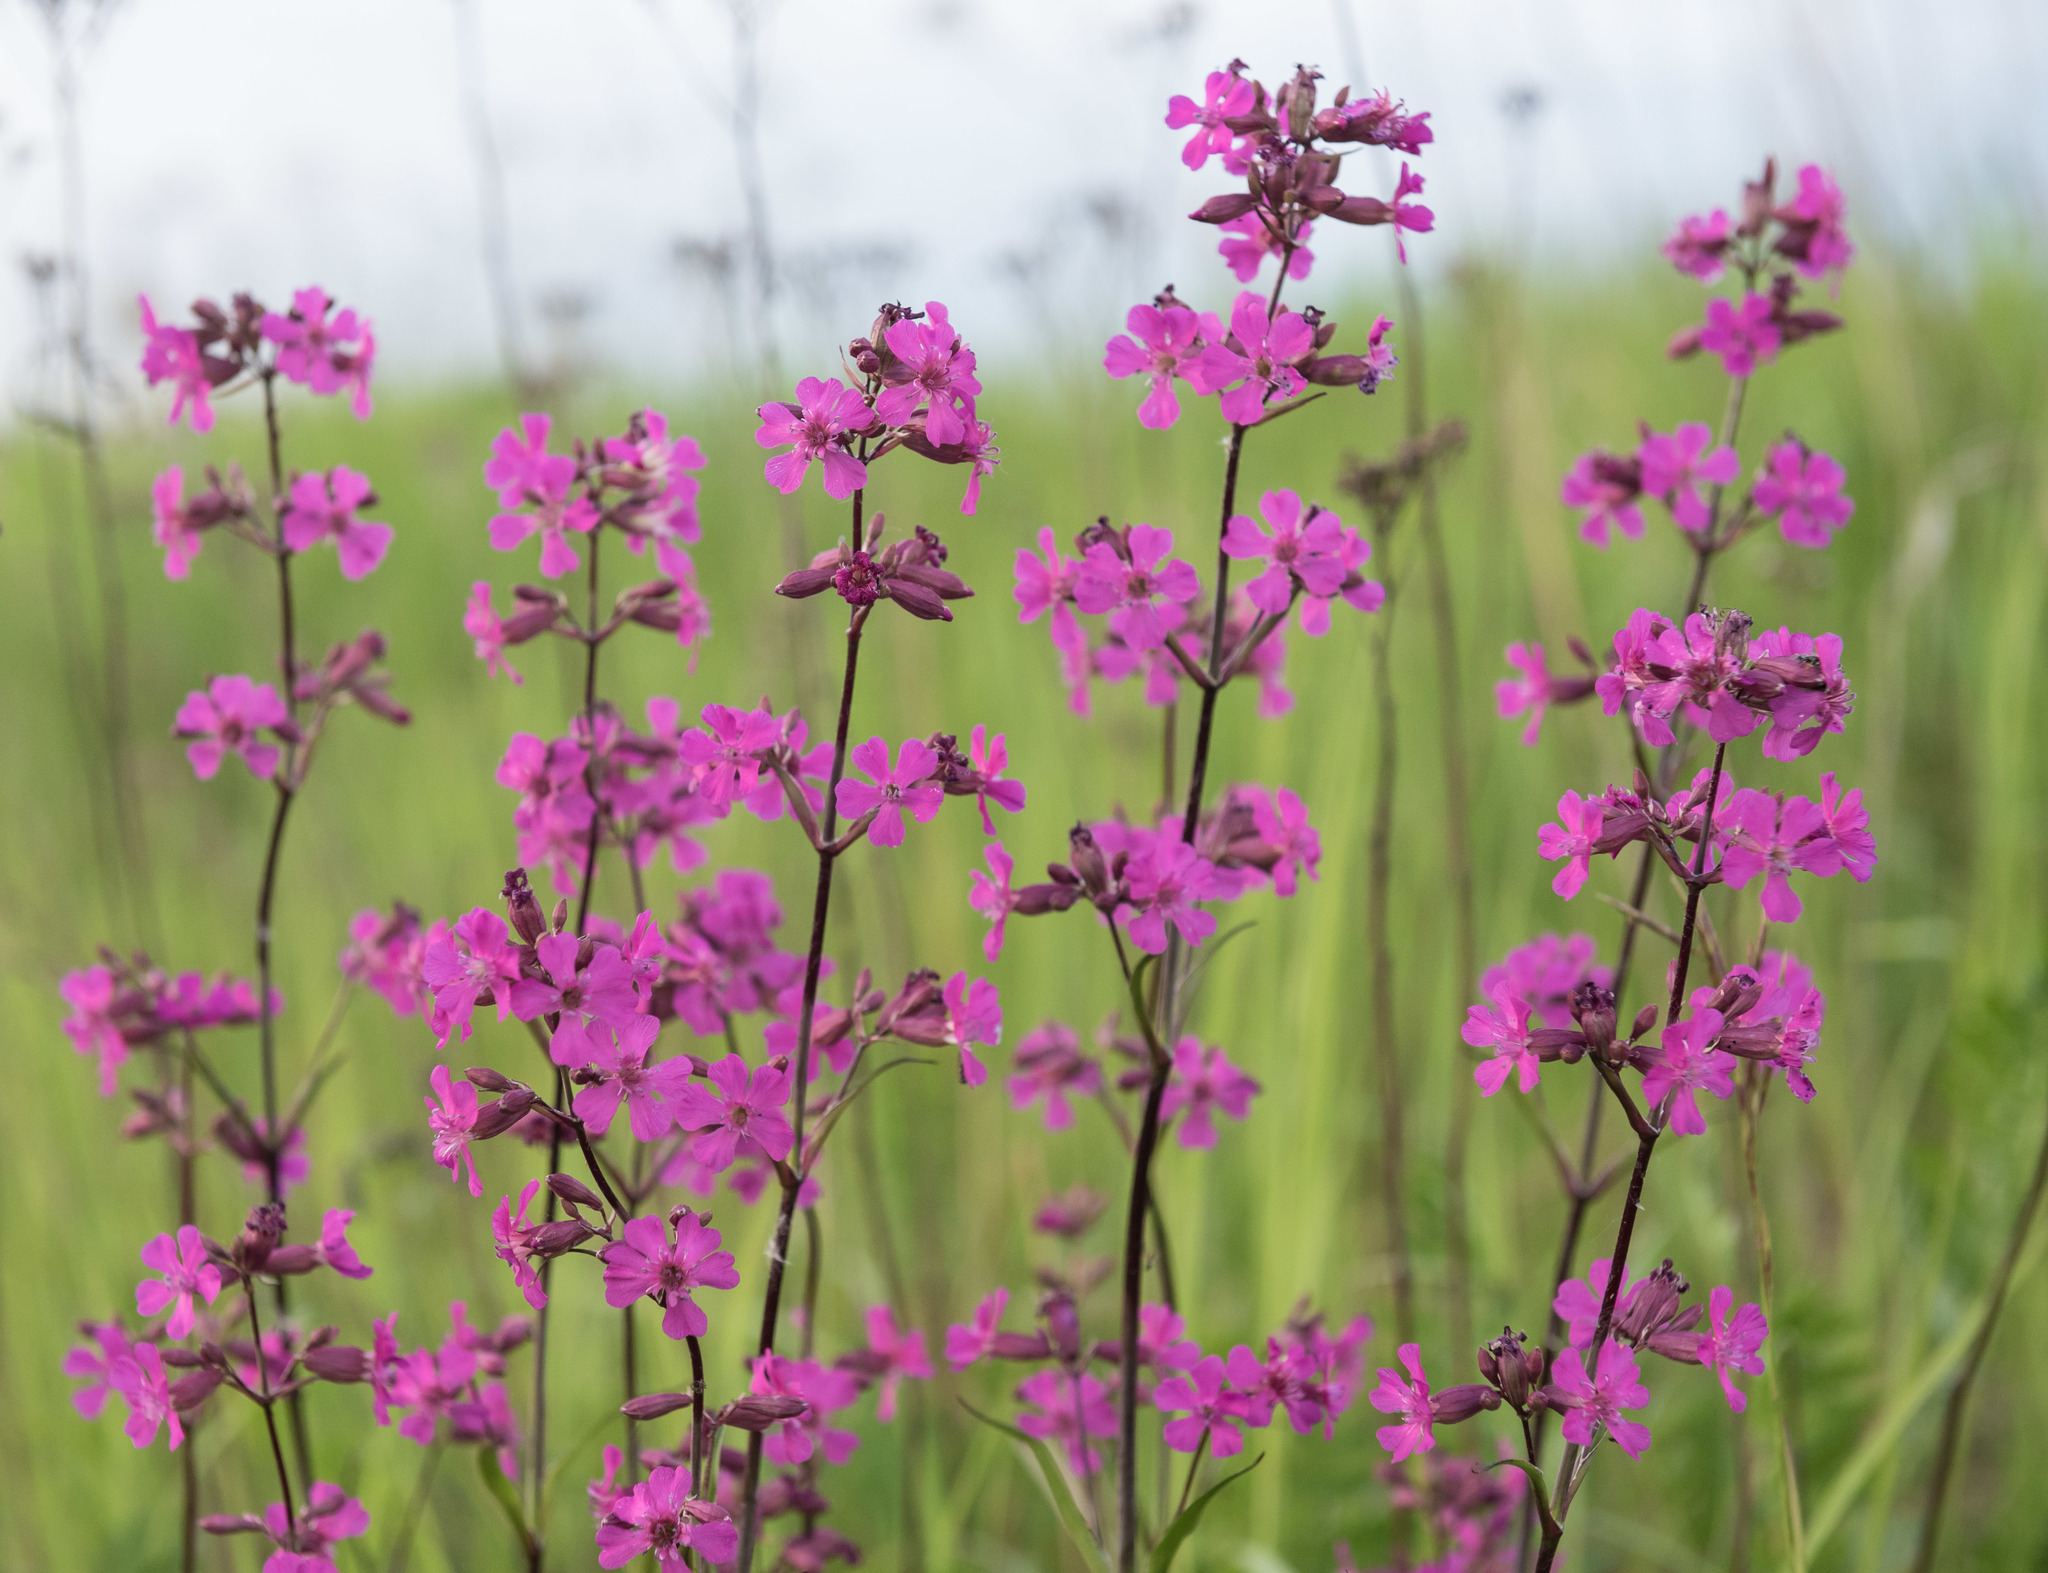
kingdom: Plantae
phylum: Tracheophyta
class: Magnoliopsida
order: Caryophyllales
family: Caryophyllaceae
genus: Viscaria
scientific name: Viscaria vulgaris
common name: Clammy campion
